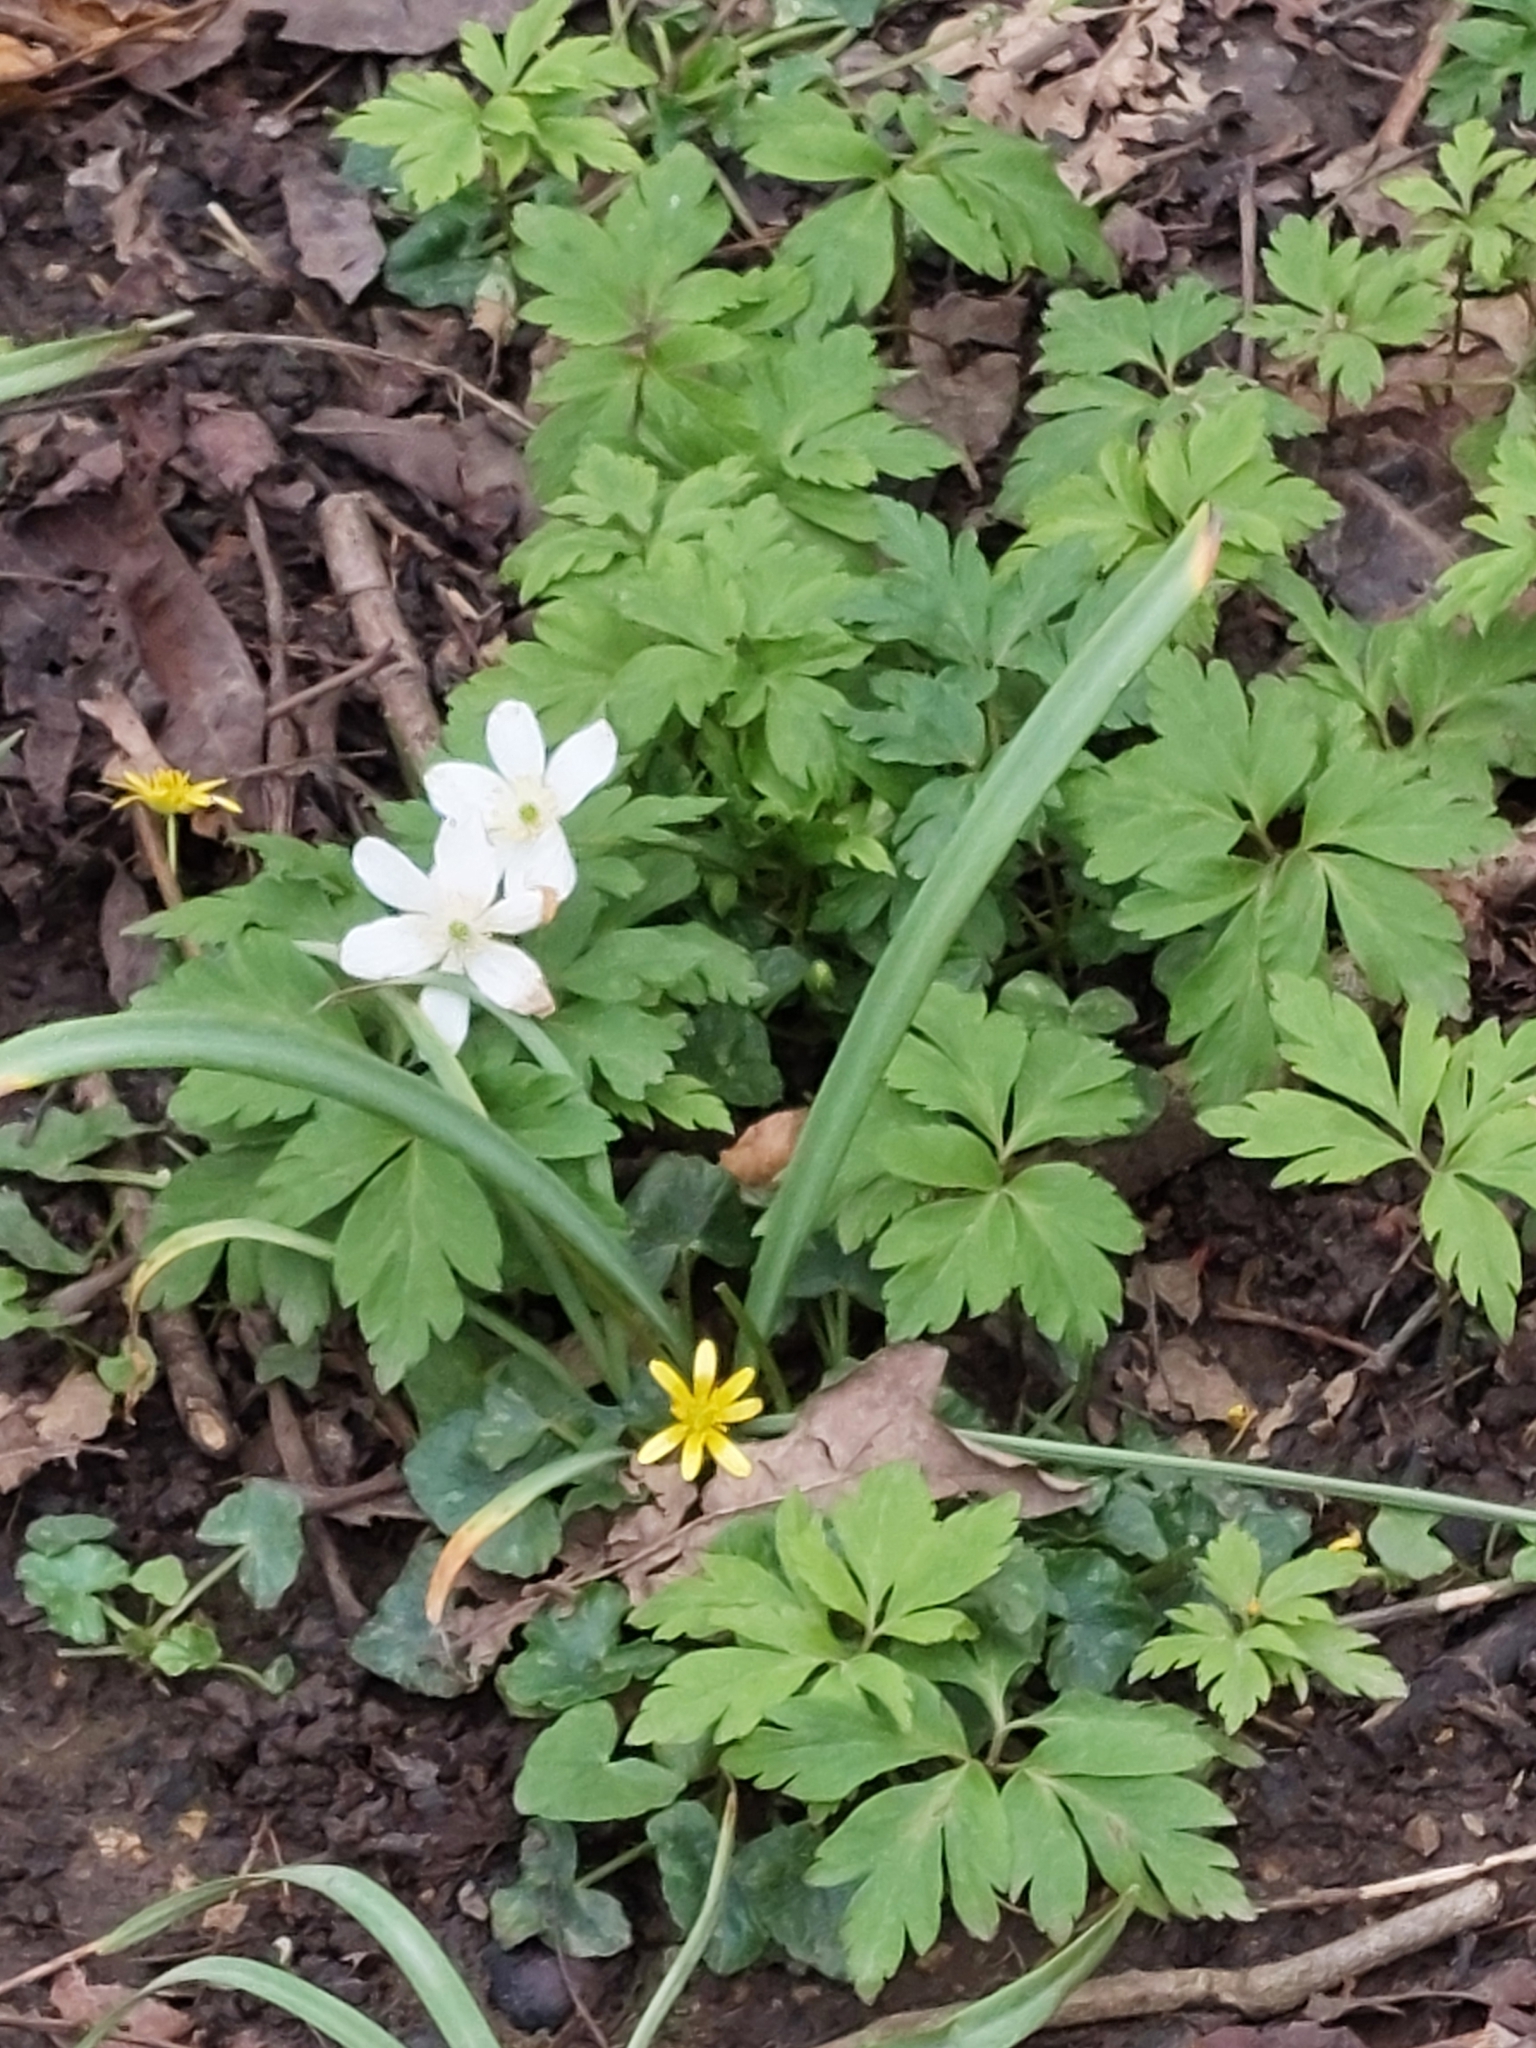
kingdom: Plantae
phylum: Tracheophyta
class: Magnoliopsida
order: Ranunculales
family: Ranunculaceae
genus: Anemone
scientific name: Anemone nemorosa
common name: Wood anemone
